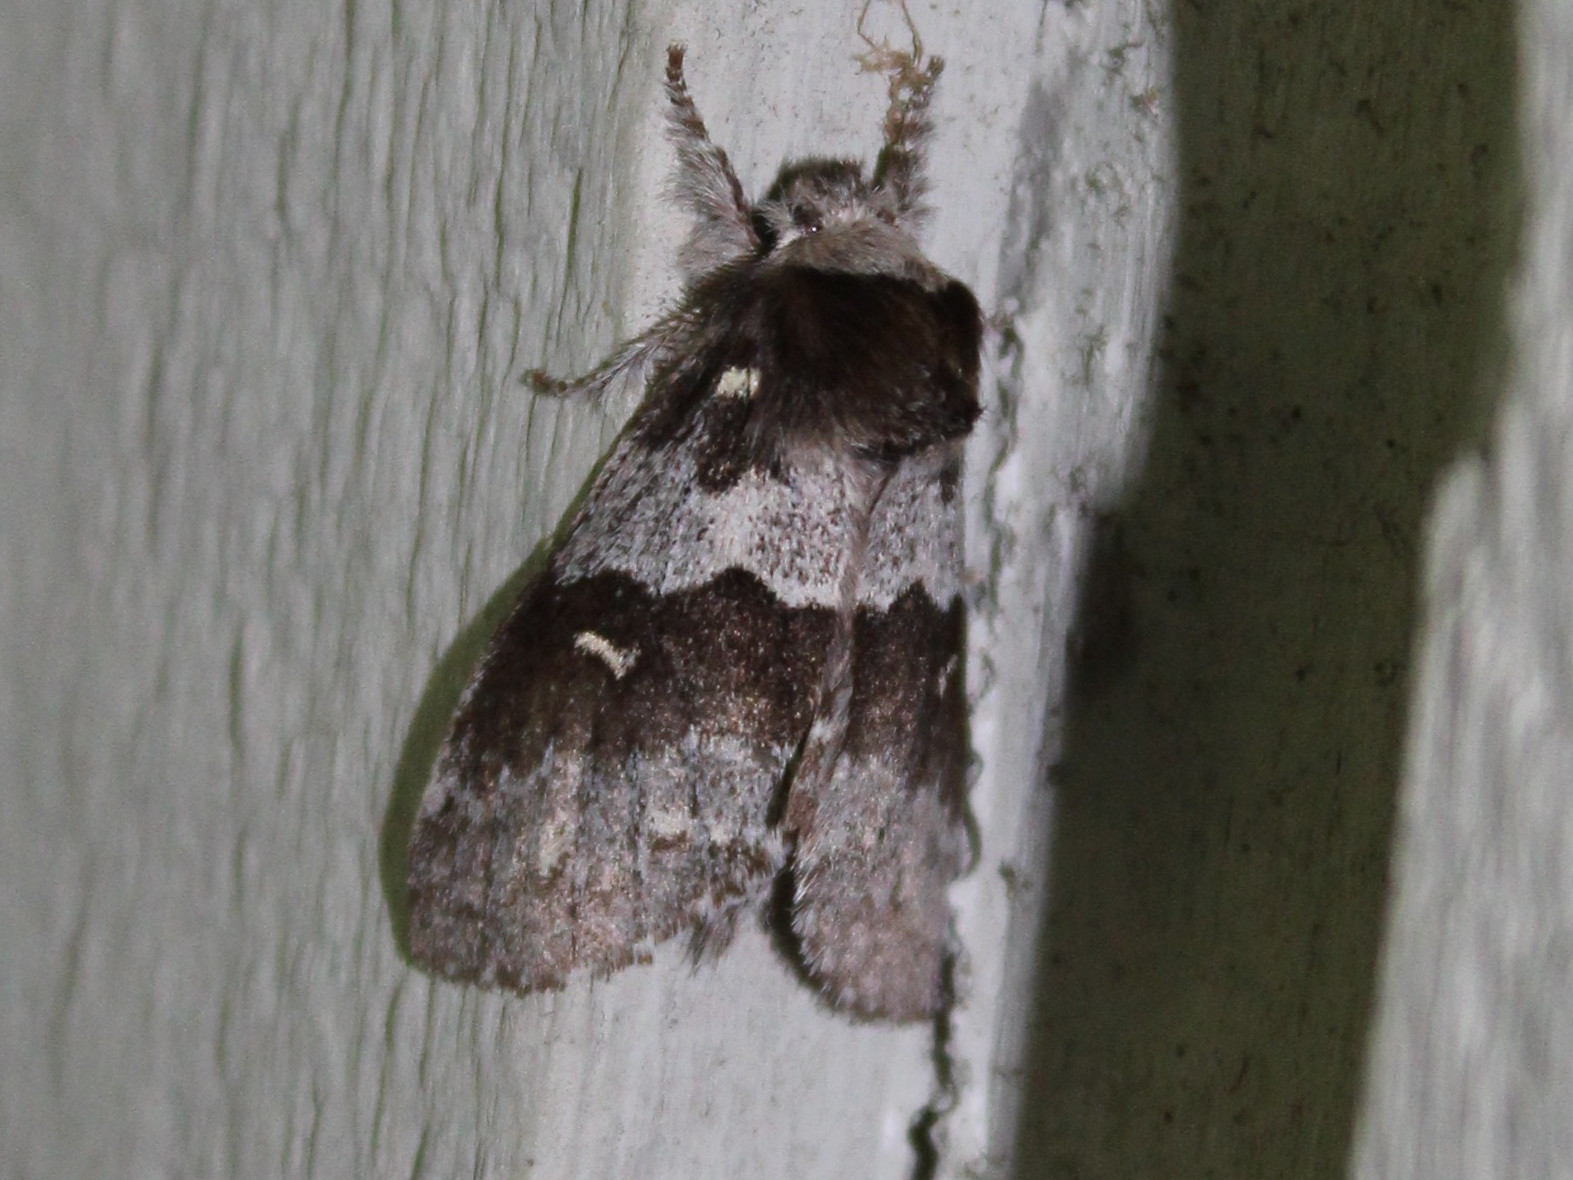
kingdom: Animalia
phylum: Arthropoda
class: Insecta
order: Lepidoptera
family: Notodontidae
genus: Gluphisia
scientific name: Gluphisia avimacula
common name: Four-spotted gluphisia moth
